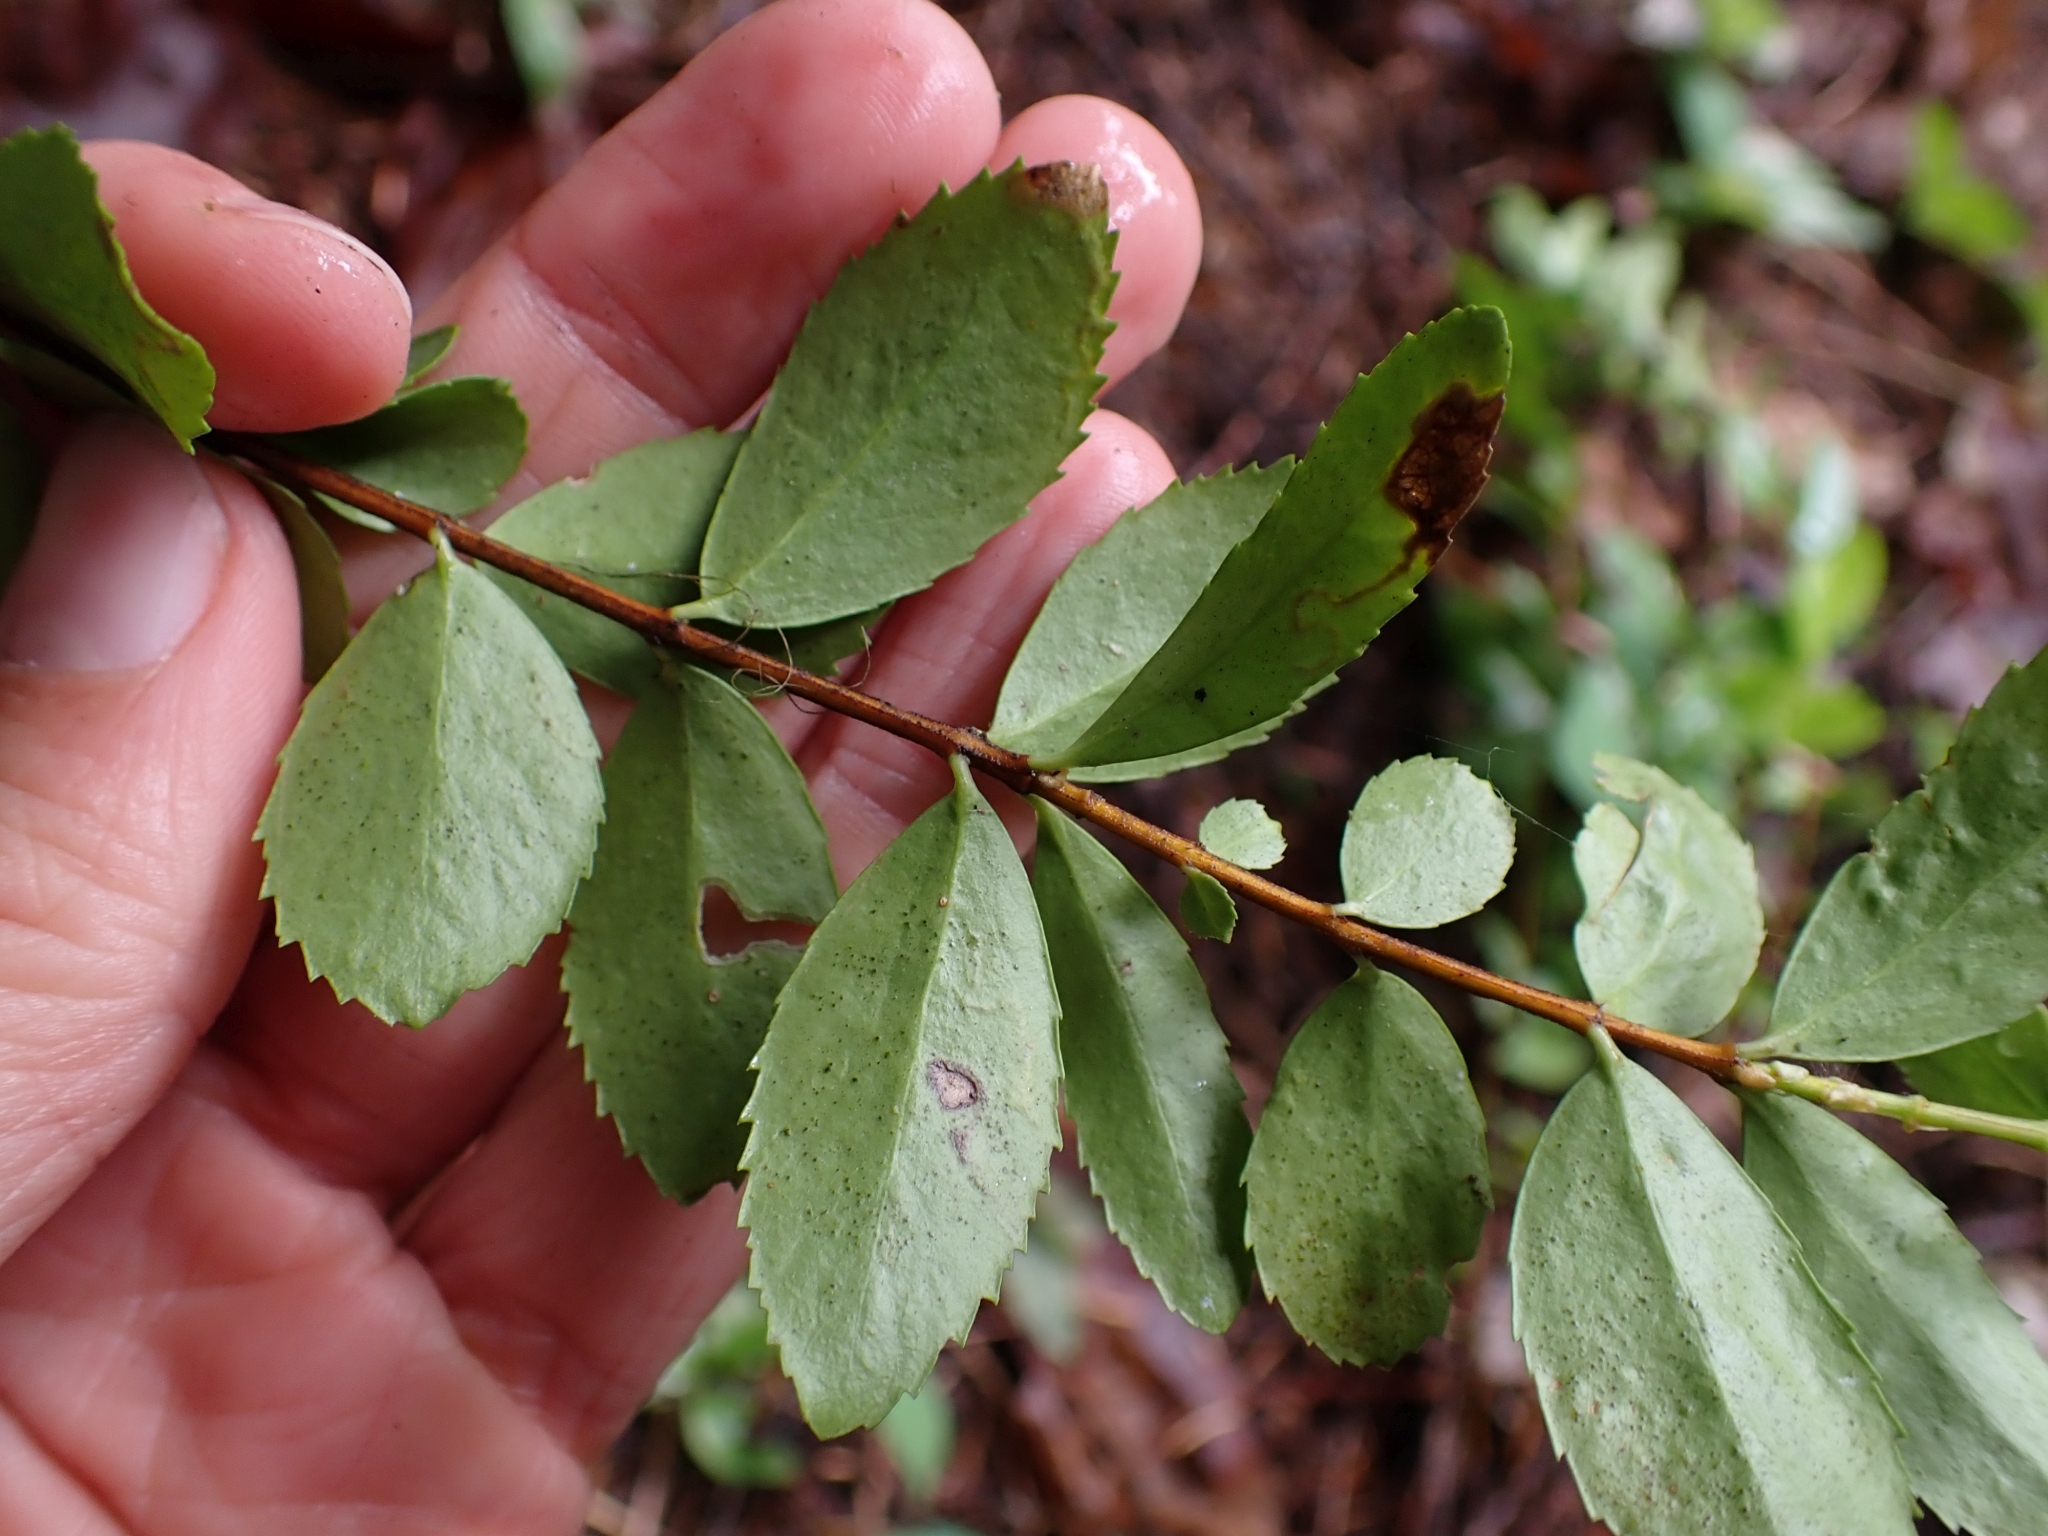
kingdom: Plantae
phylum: Tracheophyta
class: Magnoliopsida
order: Celastrales
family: Celastraceae
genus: Paxistima
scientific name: Paxistima myrsinites
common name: Mountain-lover
